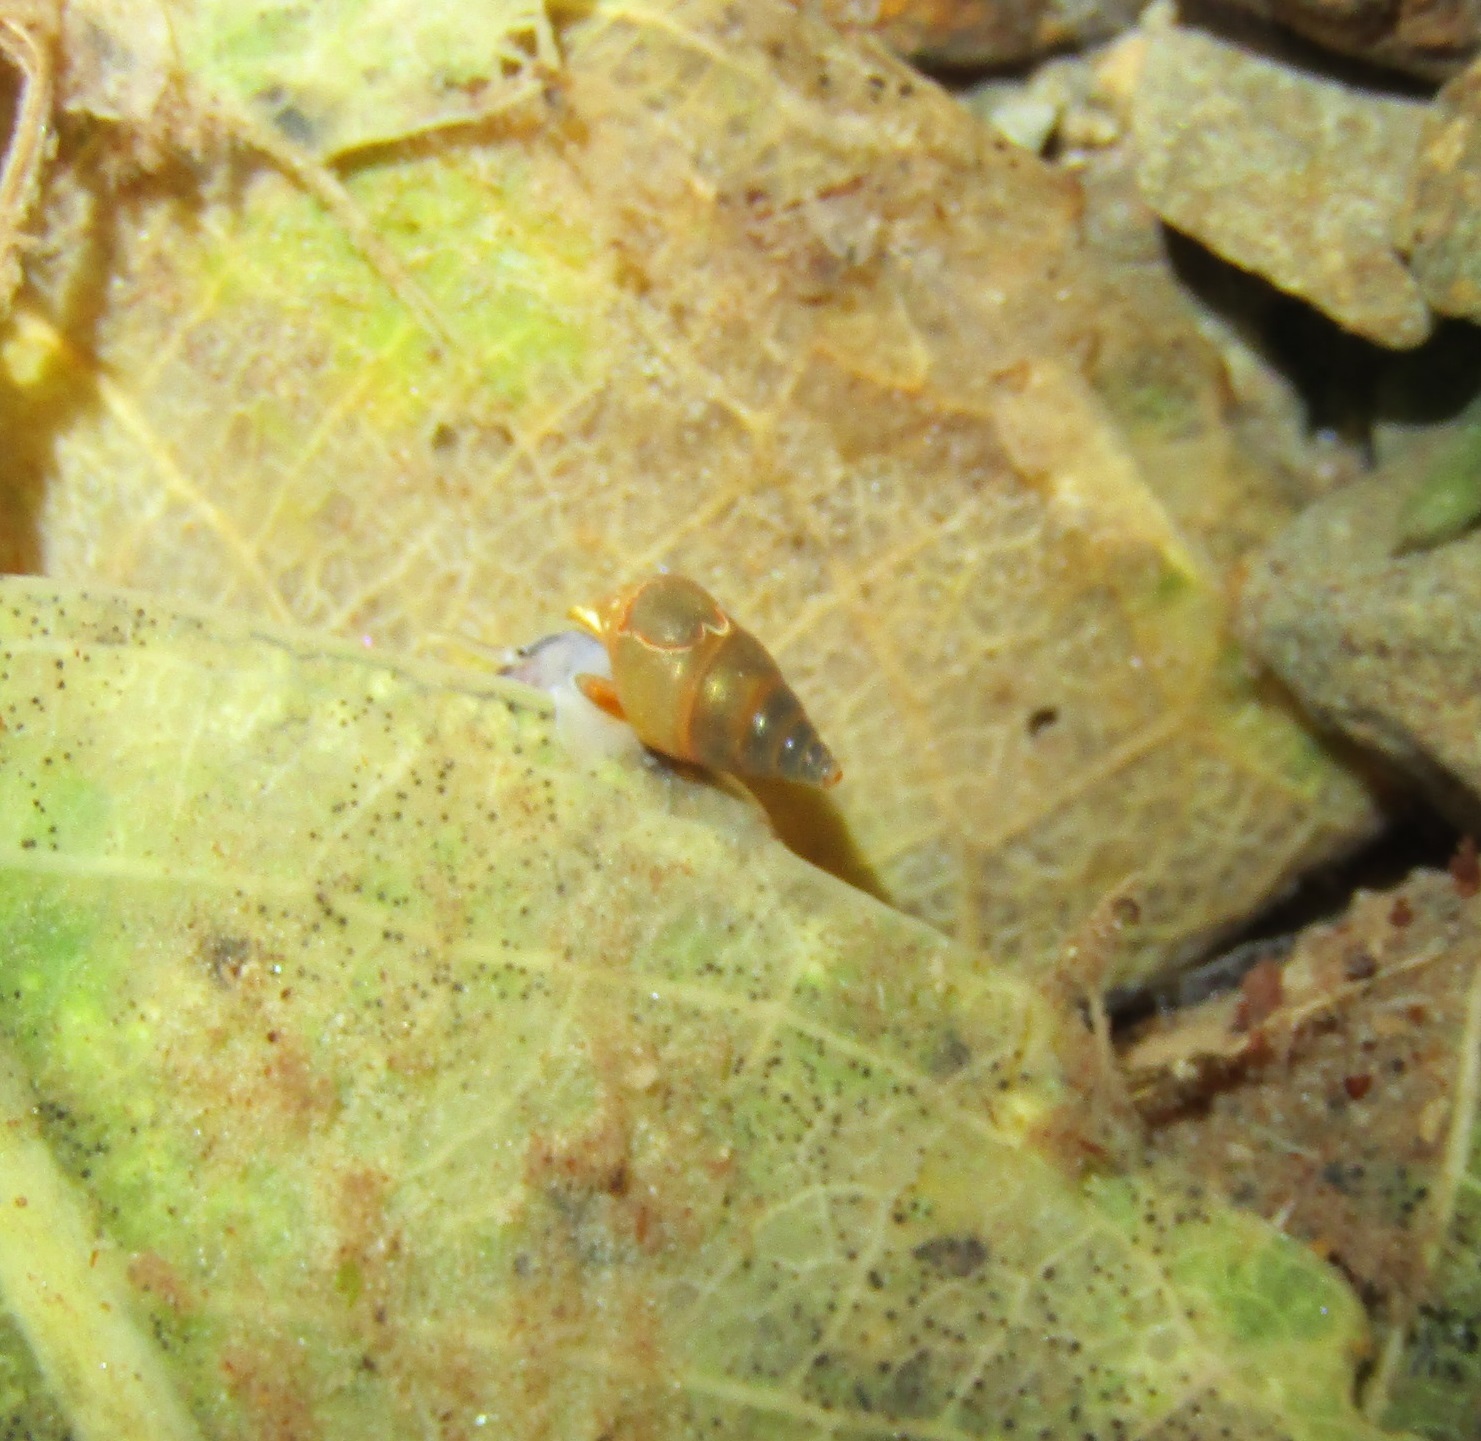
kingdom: Animalia
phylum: Mollusca
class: Gastropoda
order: Littorinimorpha
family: Tateidae
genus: Potamopyrgus
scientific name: Potamopyrgus antipodarum
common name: Jenkins' spire snail
